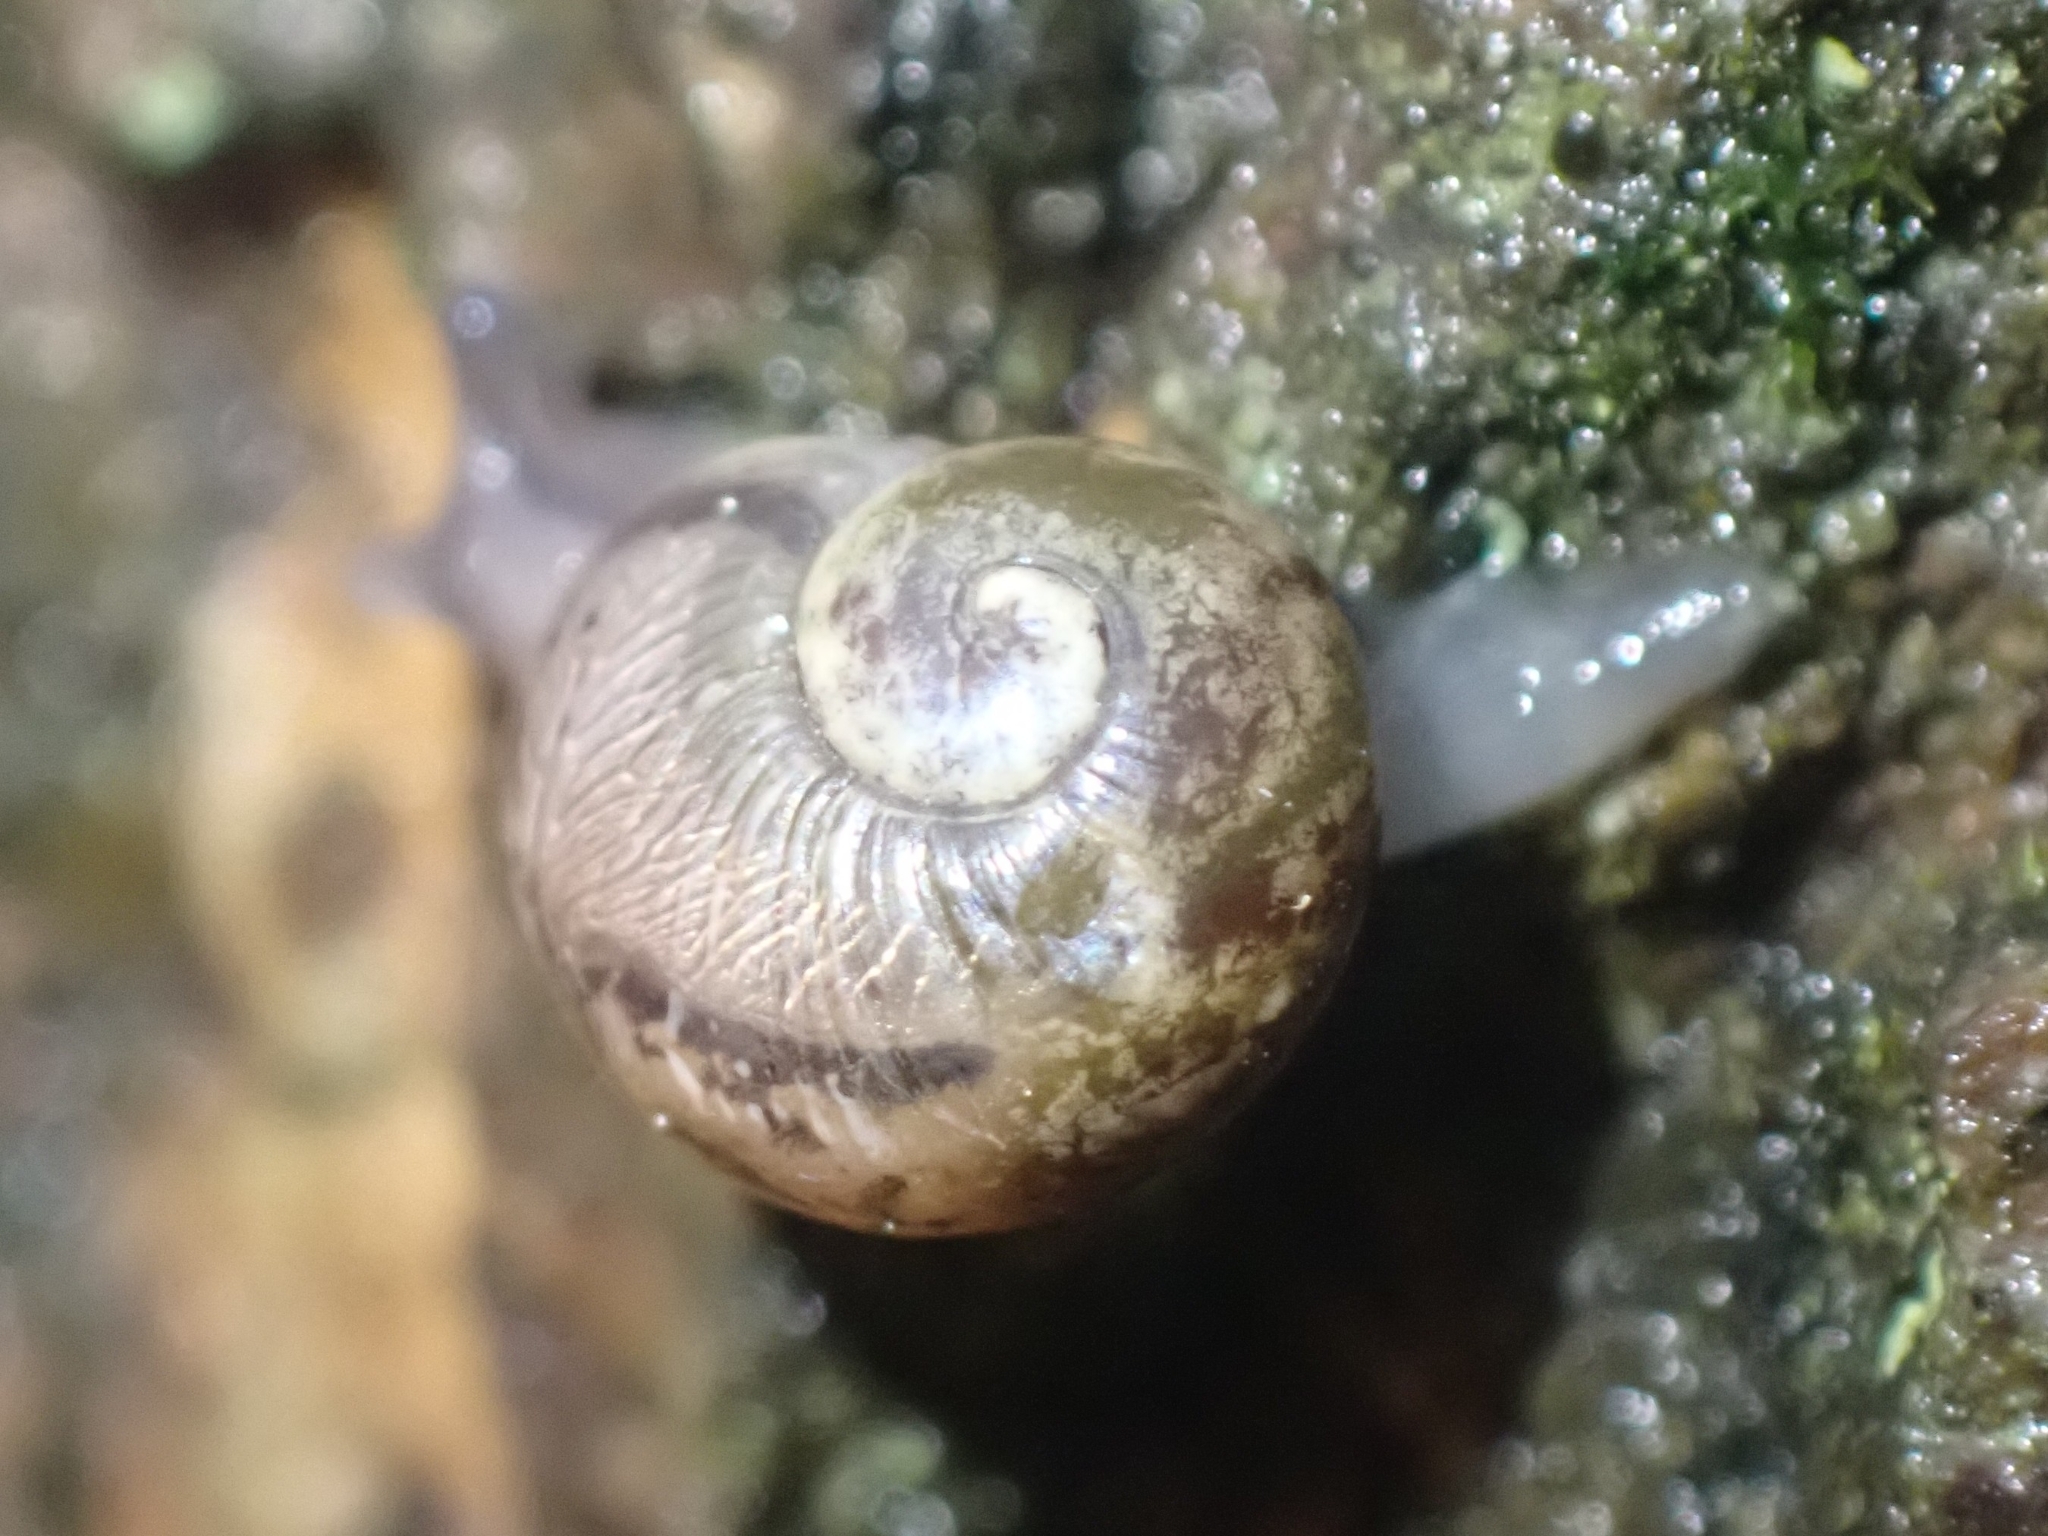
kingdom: Animalia
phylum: Mollusca
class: Gastropoda
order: Stylommatophora
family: Helicidae
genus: Cornu
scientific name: Cornu aspersum
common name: Brown garden snail
